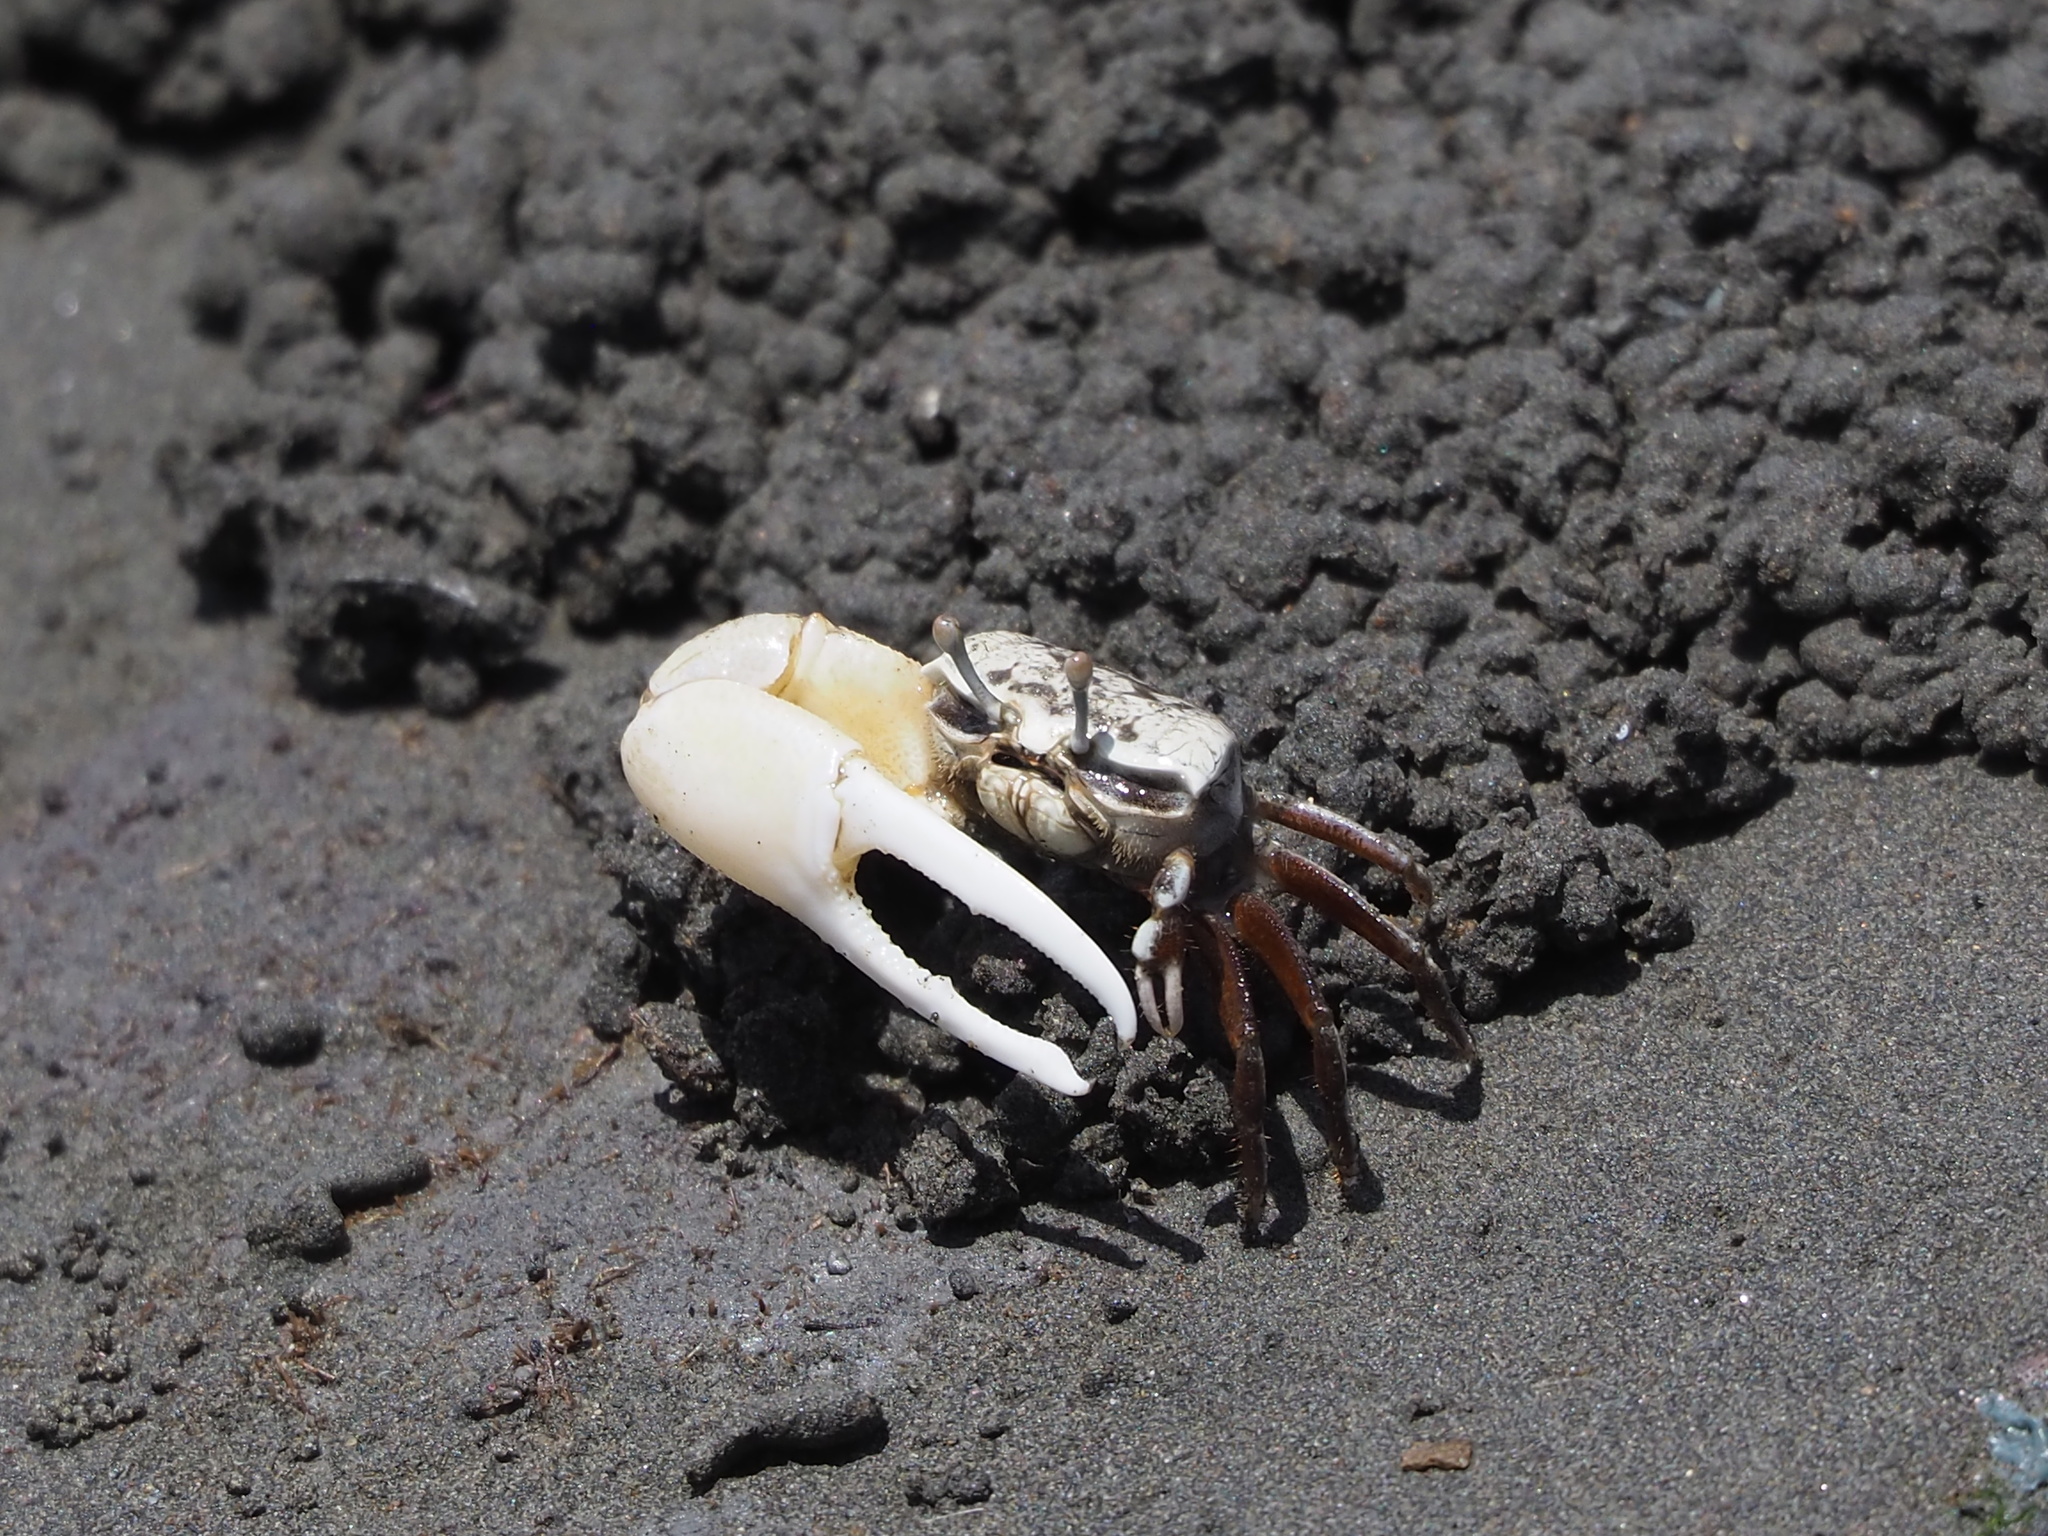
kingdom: Animalia
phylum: Arthropoda
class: Malacostraca
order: Decapoda
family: Ocypodidae
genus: Austruca
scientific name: Austruca lactea
